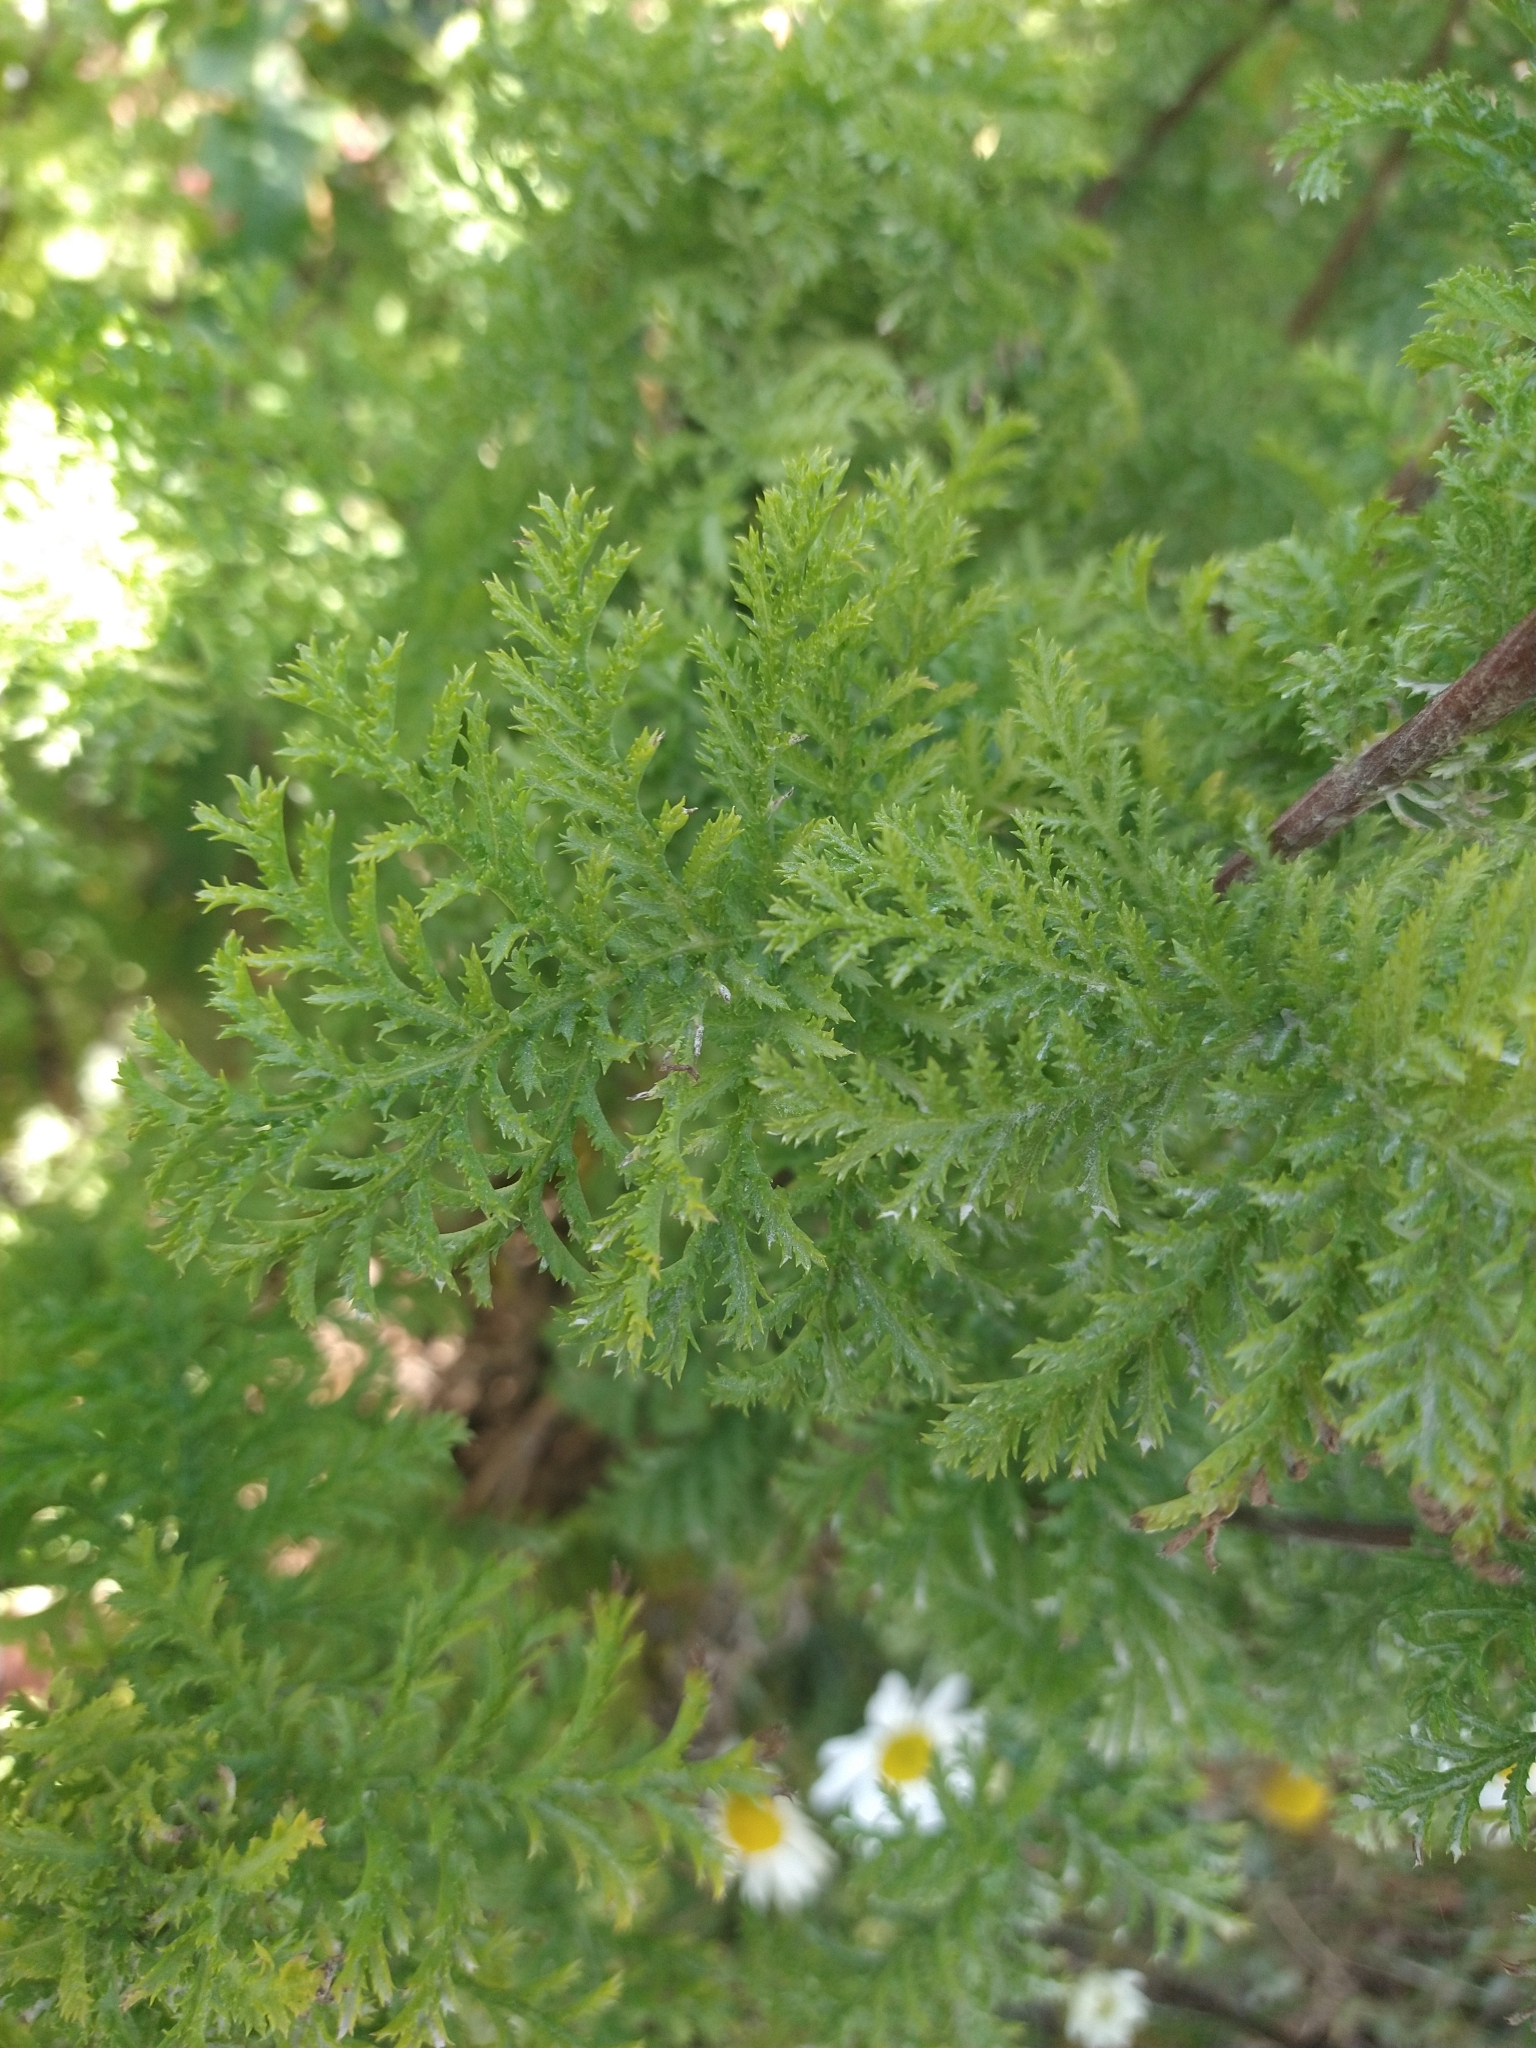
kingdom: Plantae
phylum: Tracheophyta
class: Magnoliopsida
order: Asterales
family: Asteraceae
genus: Tanacetum
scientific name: Tanacetum vulgare
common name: Common tansy
